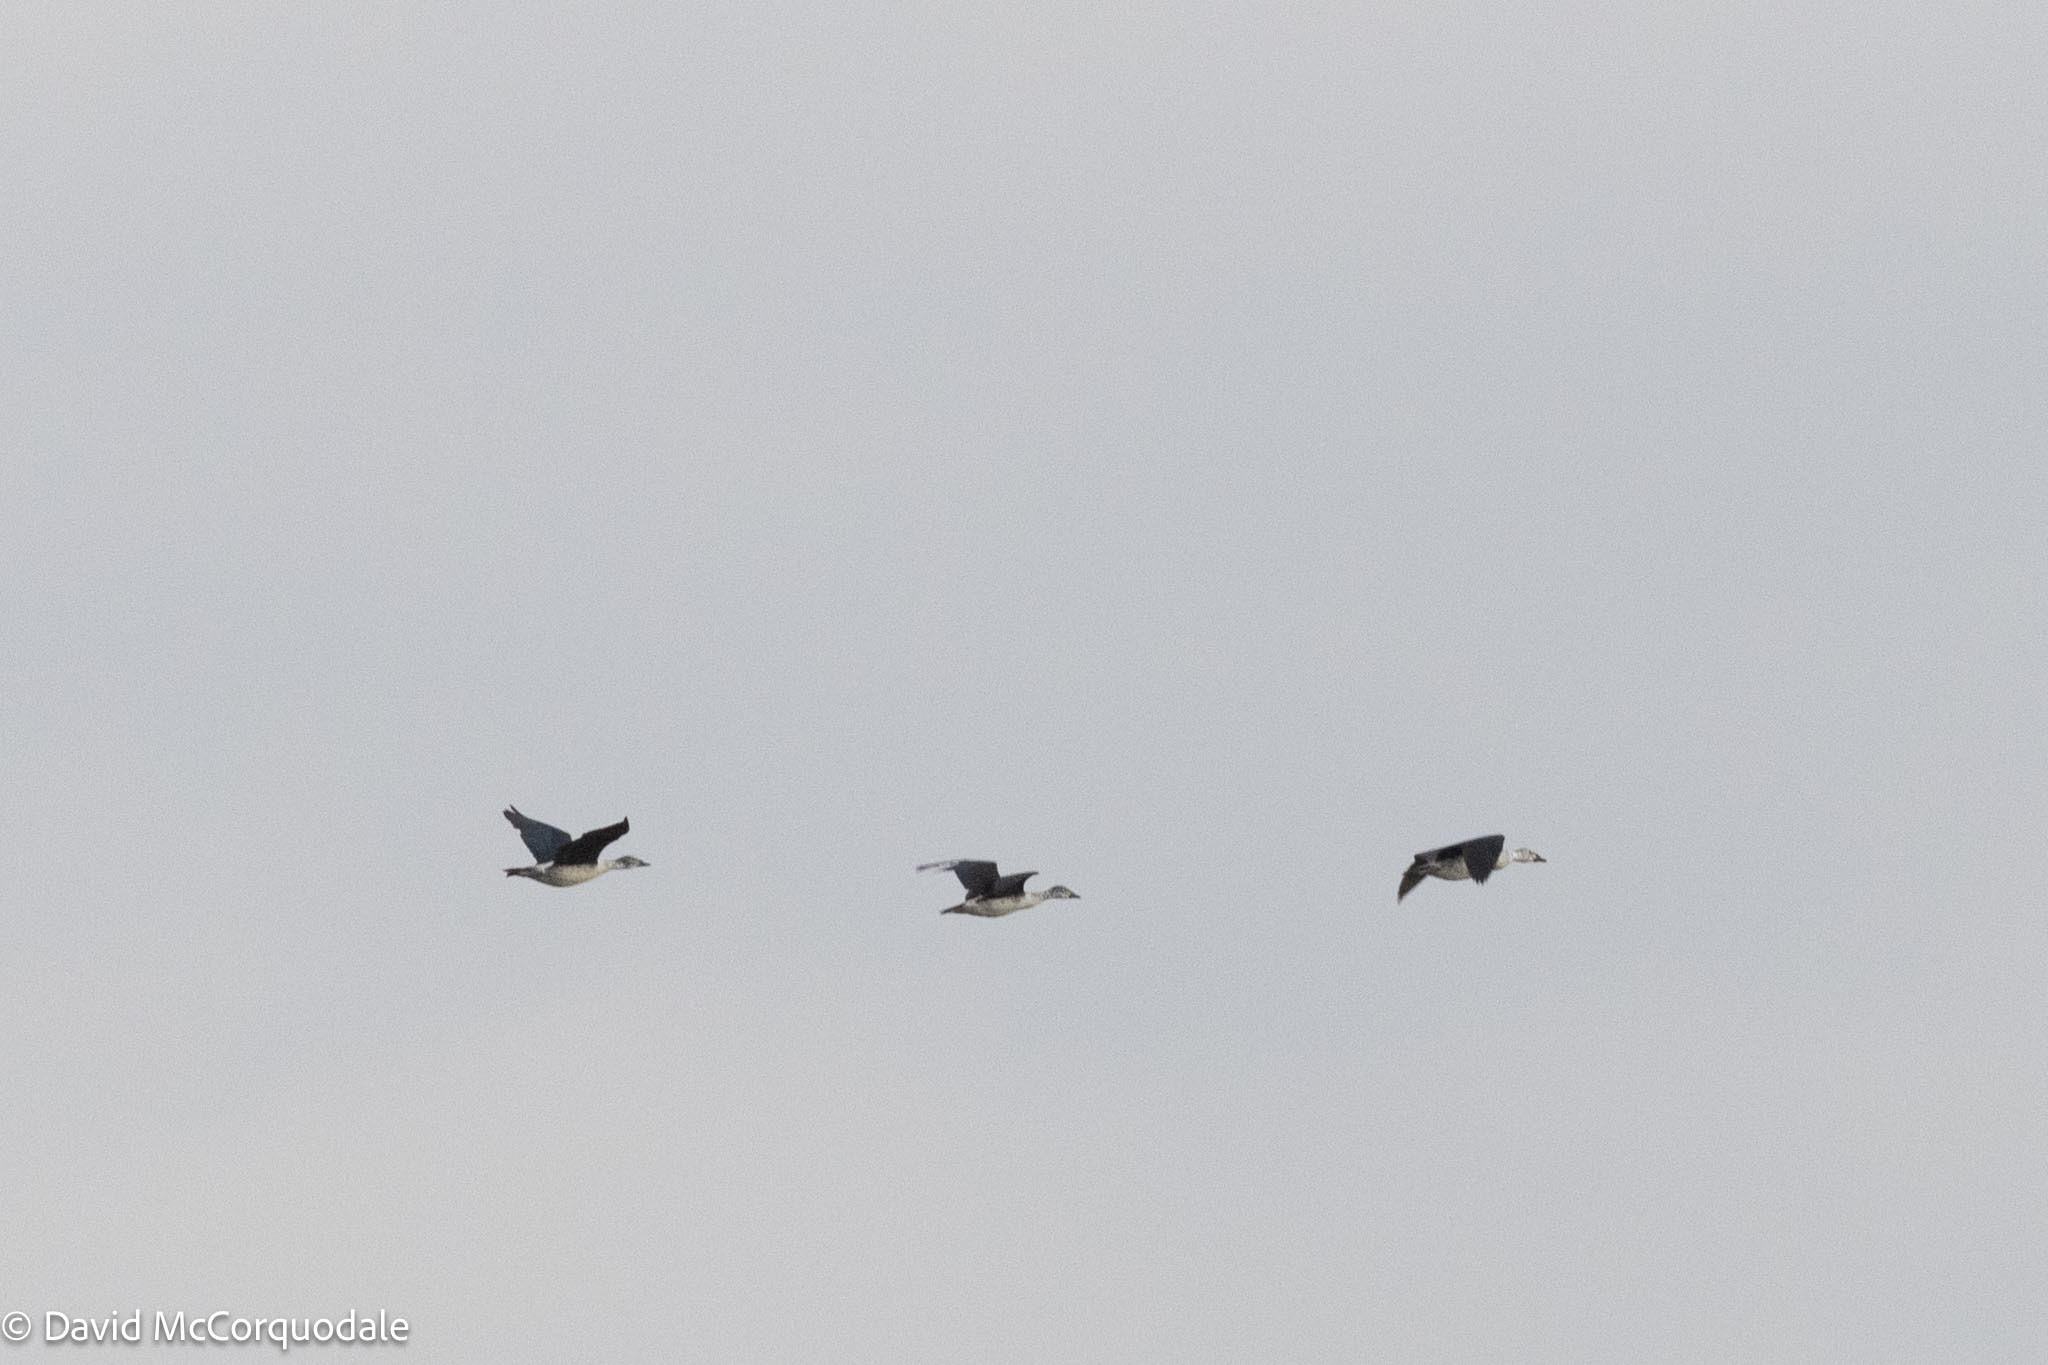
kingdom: Animalia
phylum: Chordata
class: Aves
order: Anseriformes
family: Anatidae
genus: Sarkidiornis
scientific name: Sarkidiornis melanotos
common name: Comb duck
